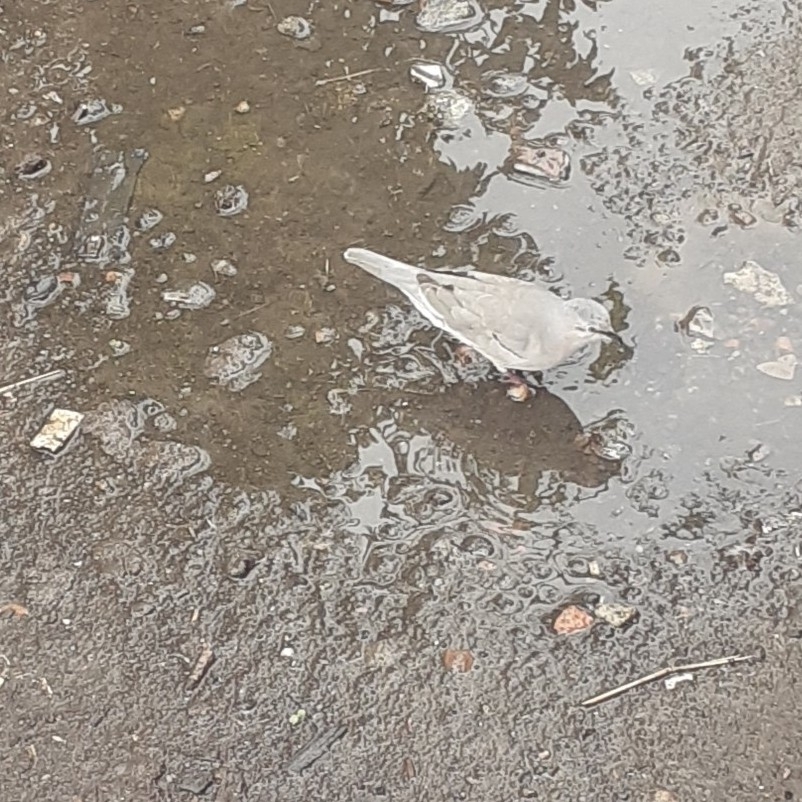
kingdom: Animalia
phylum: Chordata
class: Aves
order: Columbiformes
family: Columbidae
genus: Columbina
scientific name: Columbina picui
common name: Picui ground dove
